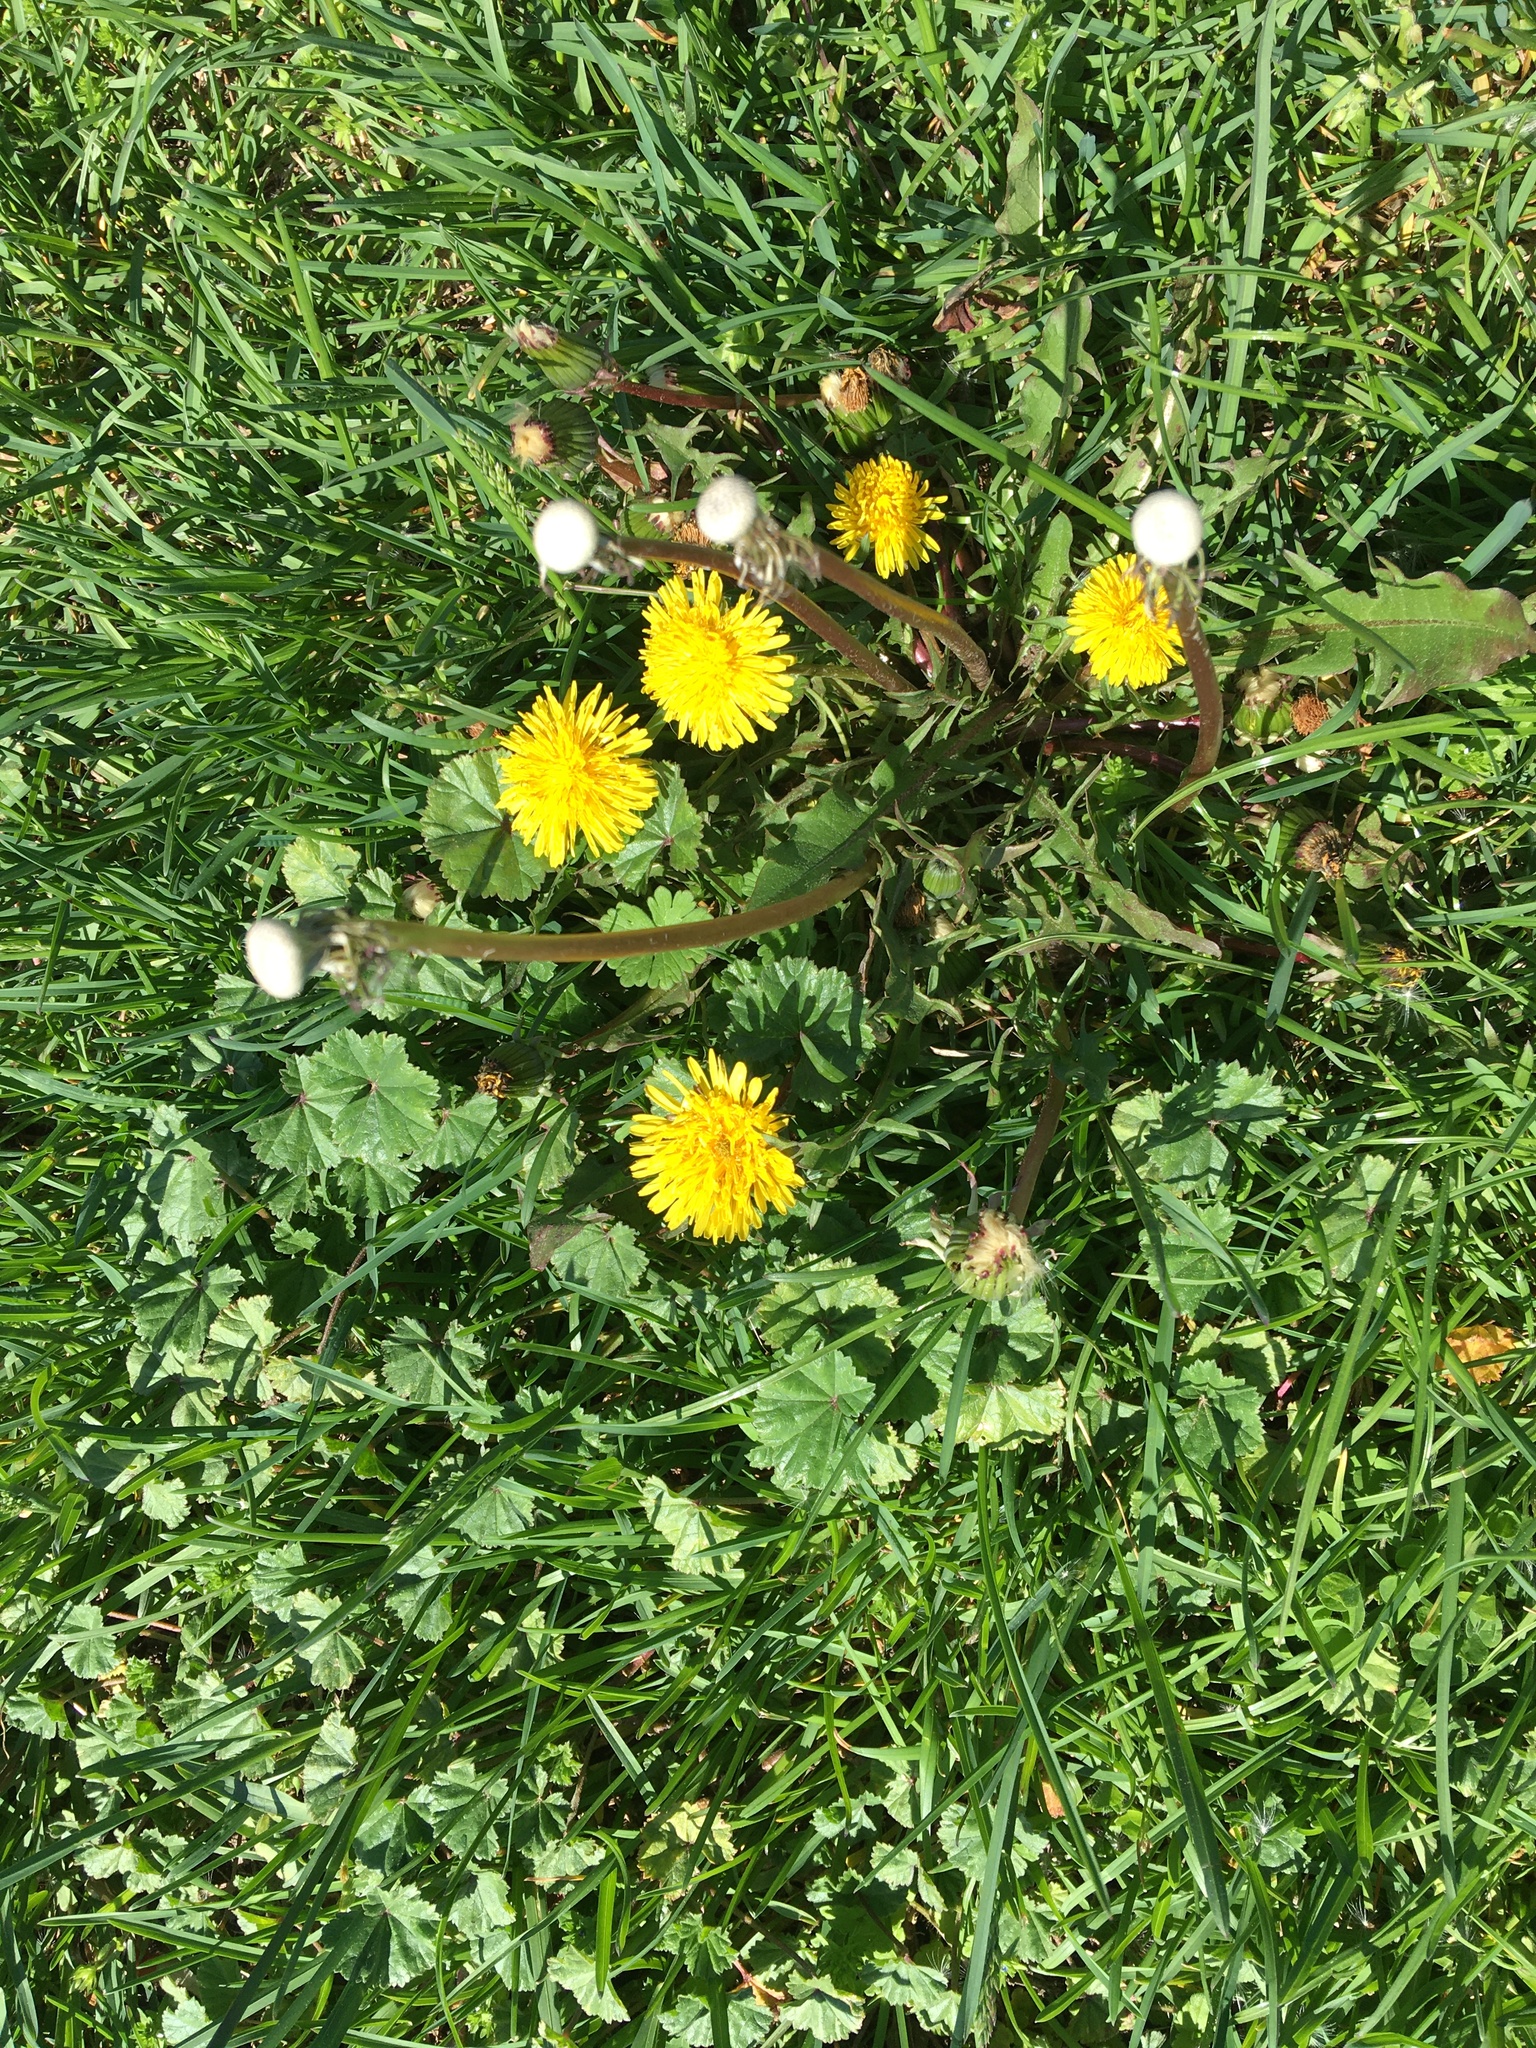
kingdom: Plantae
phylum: Tracheophyta
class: Magnoliopsida
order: Asterales
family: Asteraceae
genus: Taraxacum
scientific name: Taraxacum officinale
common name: Common dandelion
